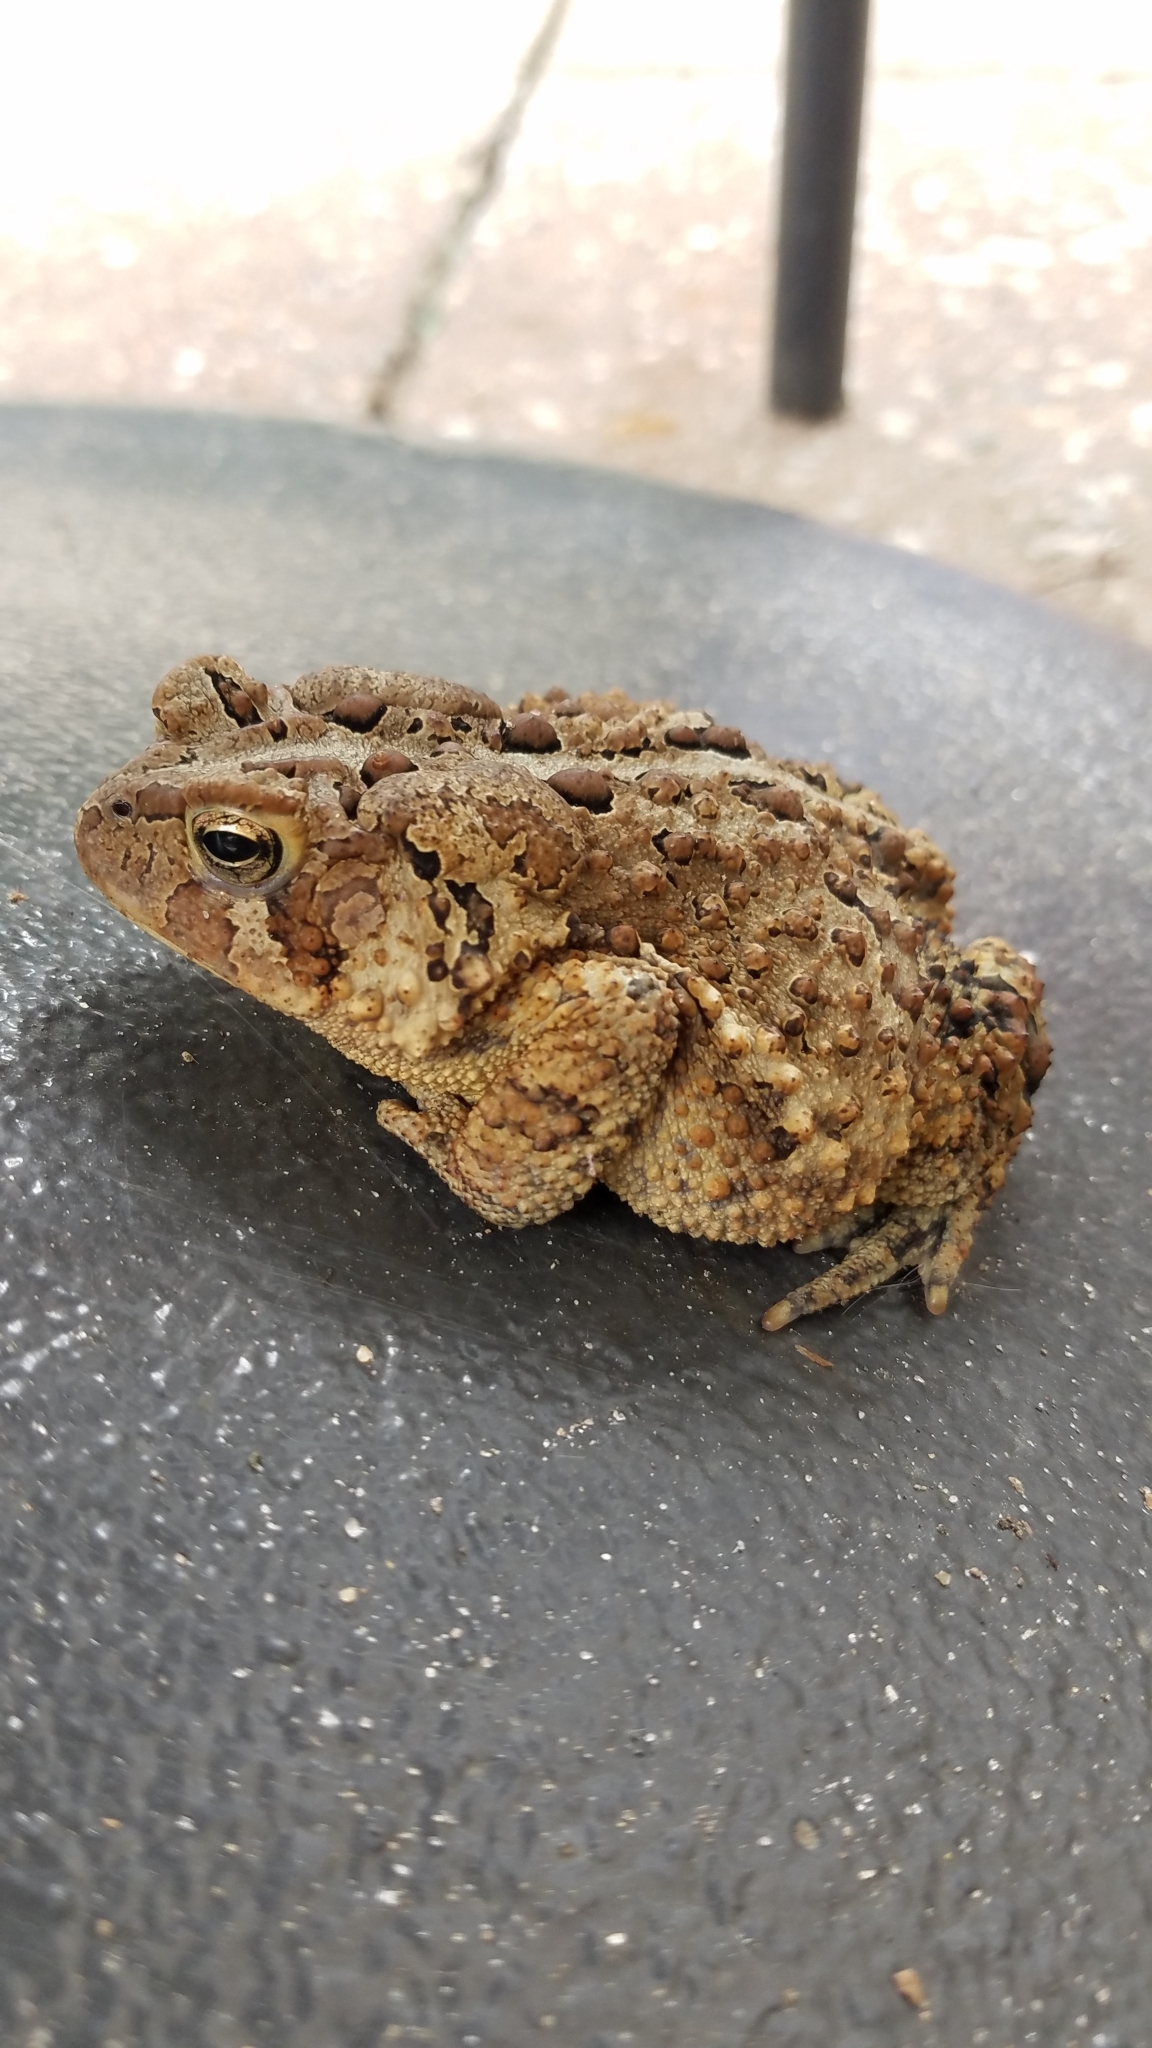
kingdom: Animalia
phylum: Chordata
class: Amphibia
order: Anura
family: Bufonidae
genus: Anaxyrus
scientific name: Anaxyrus americanus
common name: American toad
